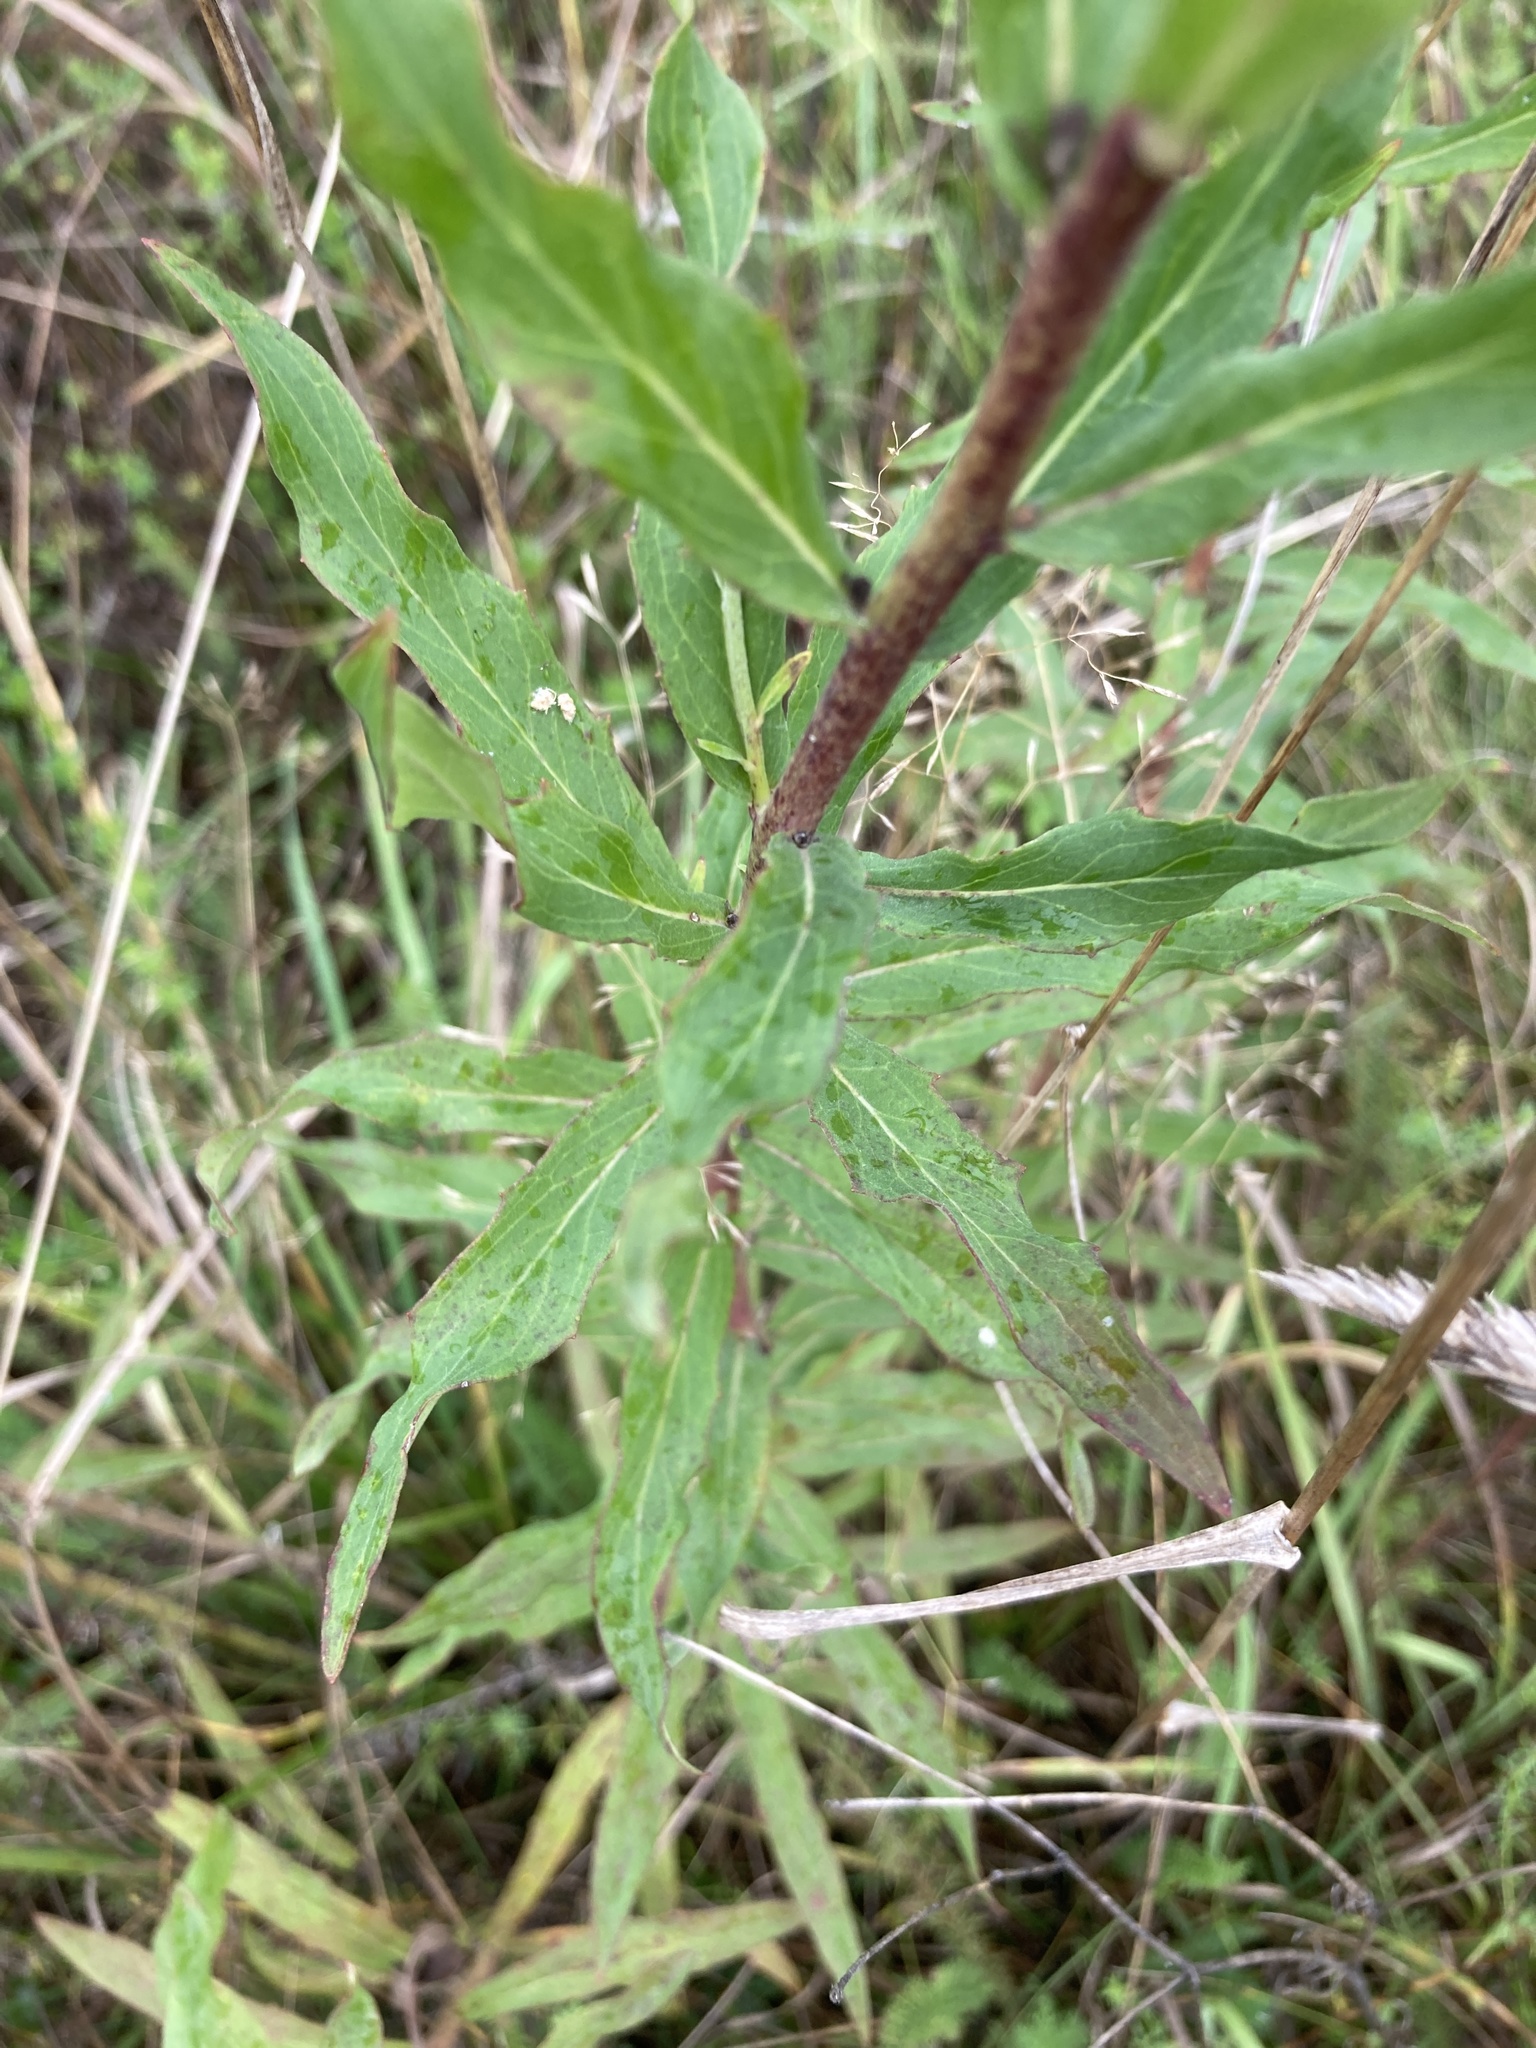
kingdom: Plantae
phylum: Tracheophyta
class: Magnoliopsida
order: Asterales
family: Asteraceae
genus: Hieracium
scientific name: Hieracium umbellatum
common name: Northern hawkweed
